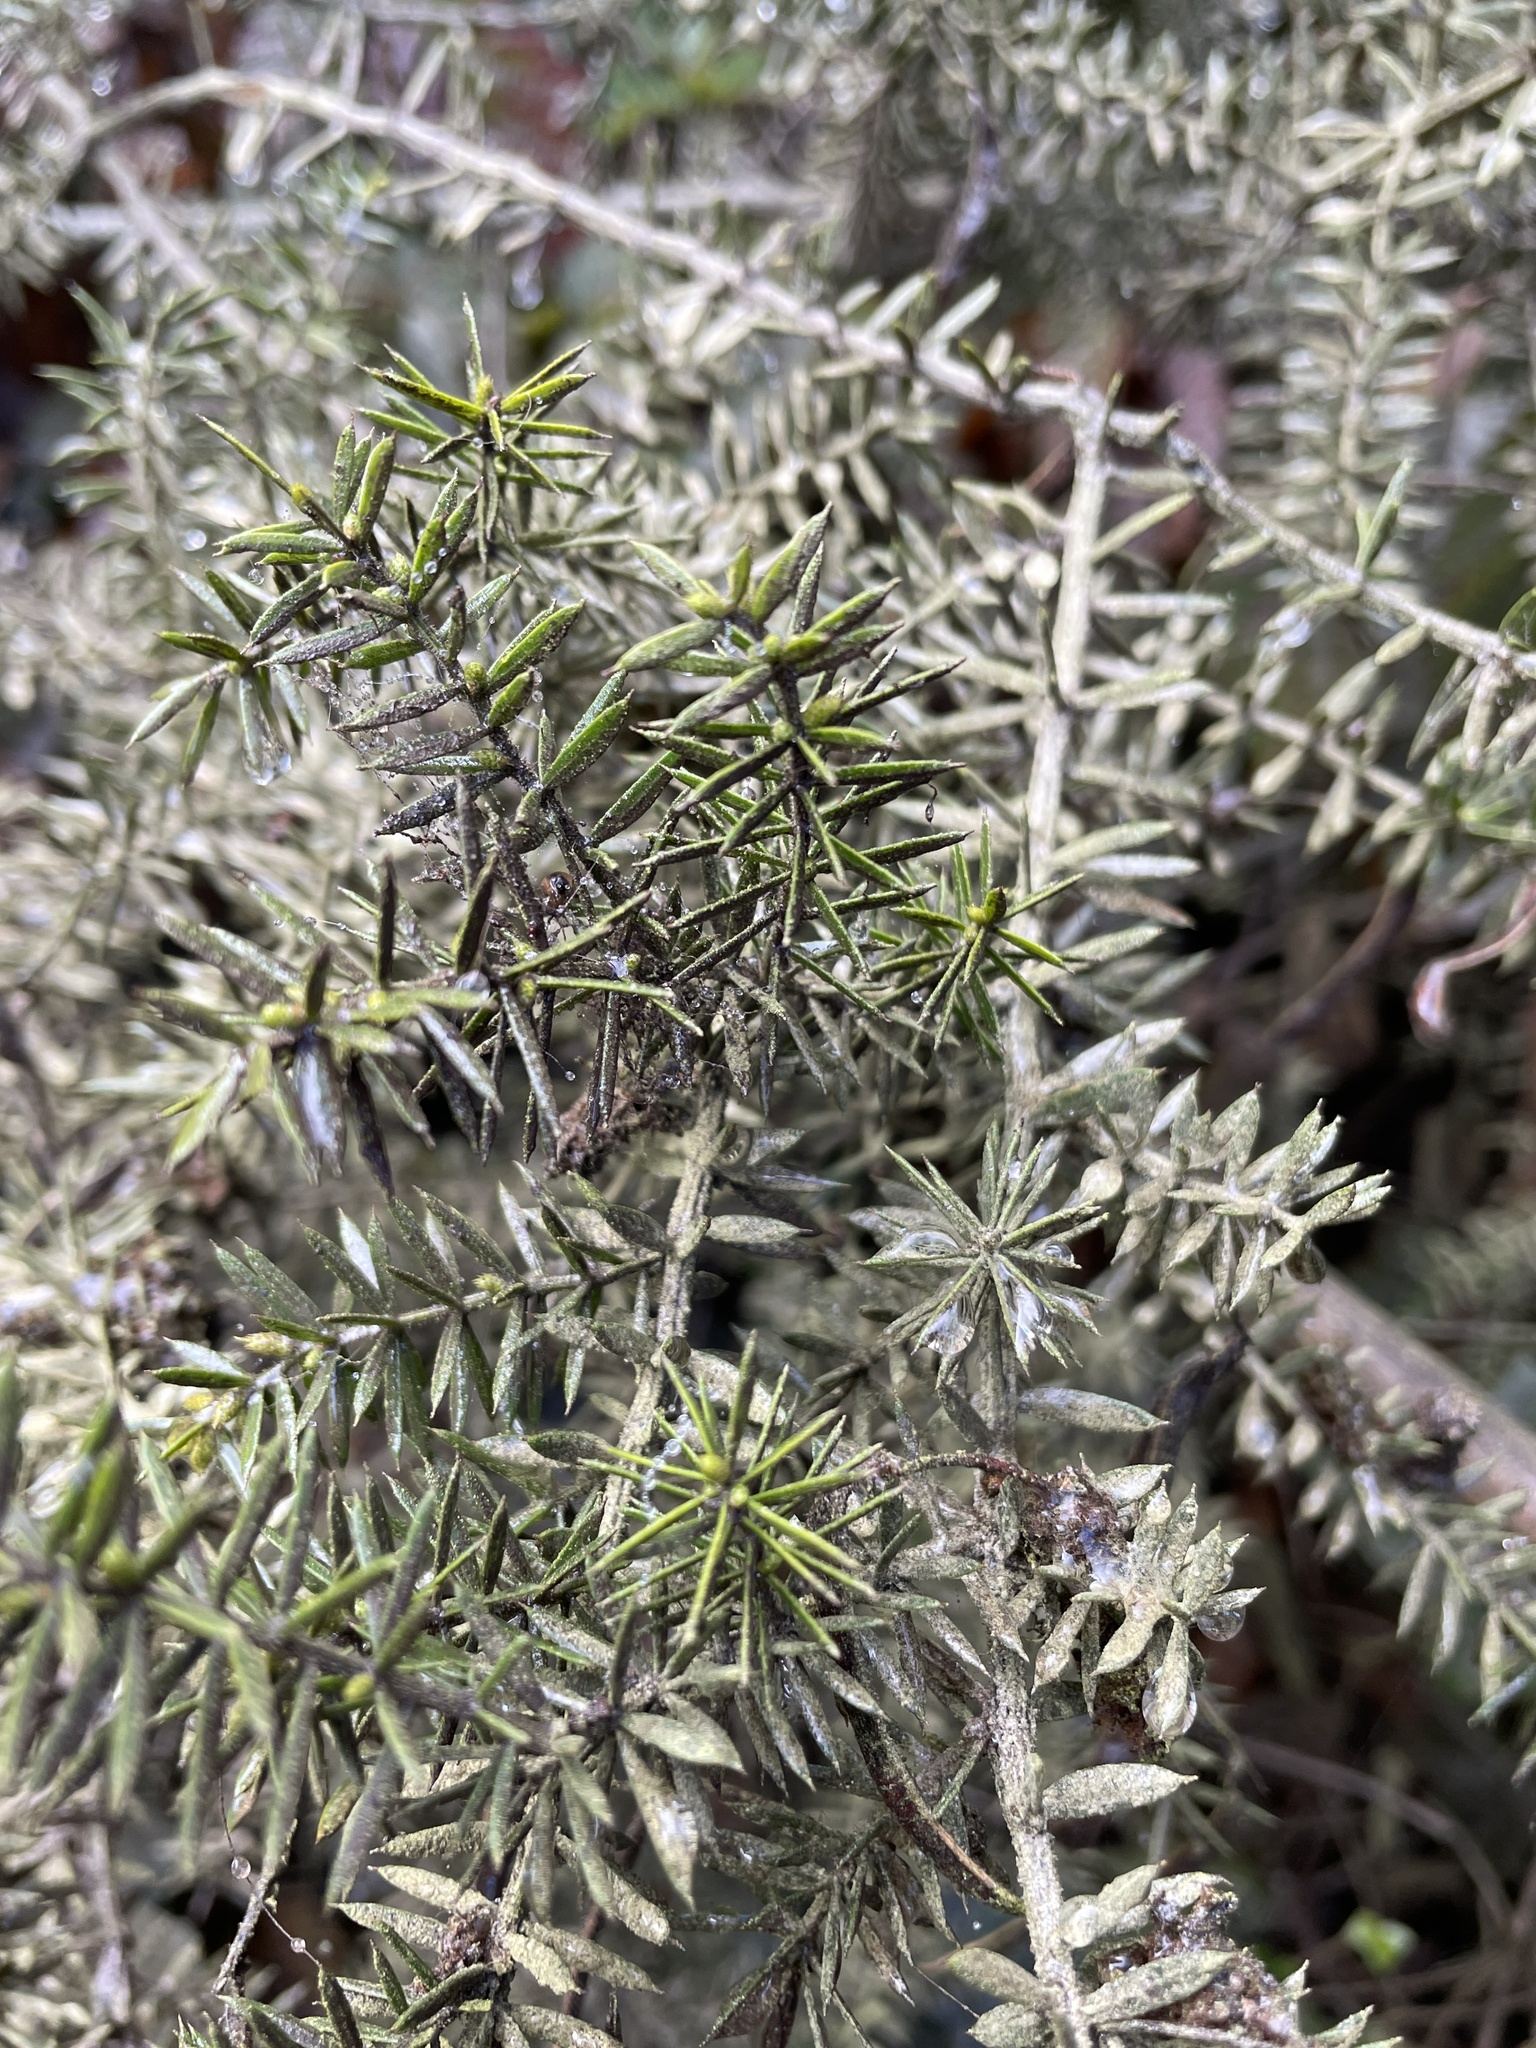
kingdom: Plantae
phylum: Tracheophyta
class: Magnoliopsida
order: Fabales
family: Fabaceae
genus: Acacia
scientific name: Acacia verticillata
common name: Prickly moses
